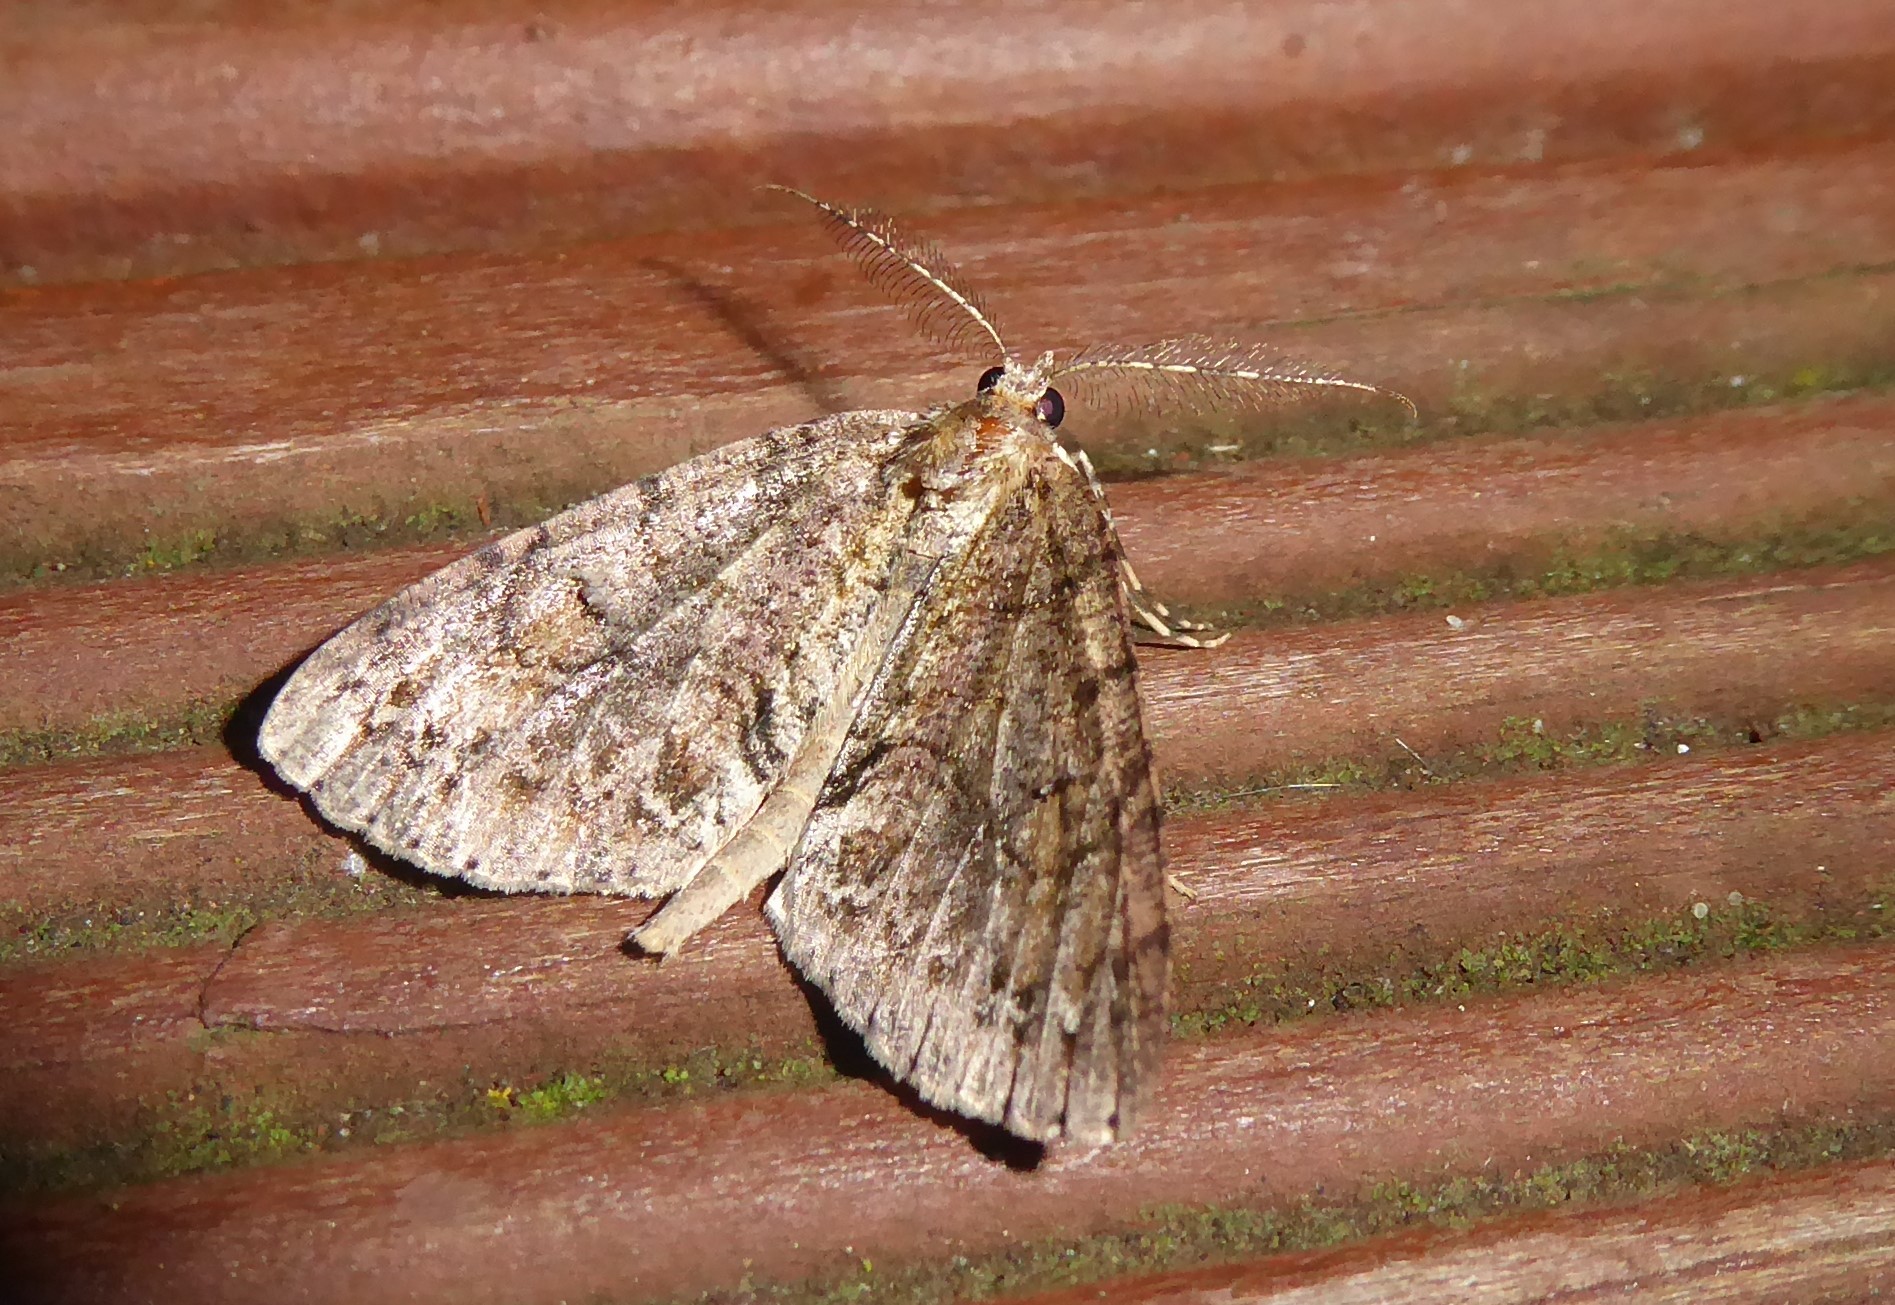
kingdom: Animalia
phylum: Arthropoda
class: Insecta
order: Lepidoptera
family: Geometridae
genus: Pseudocoremia
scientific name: Pseudocoremia suavis
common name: Common forest looper
